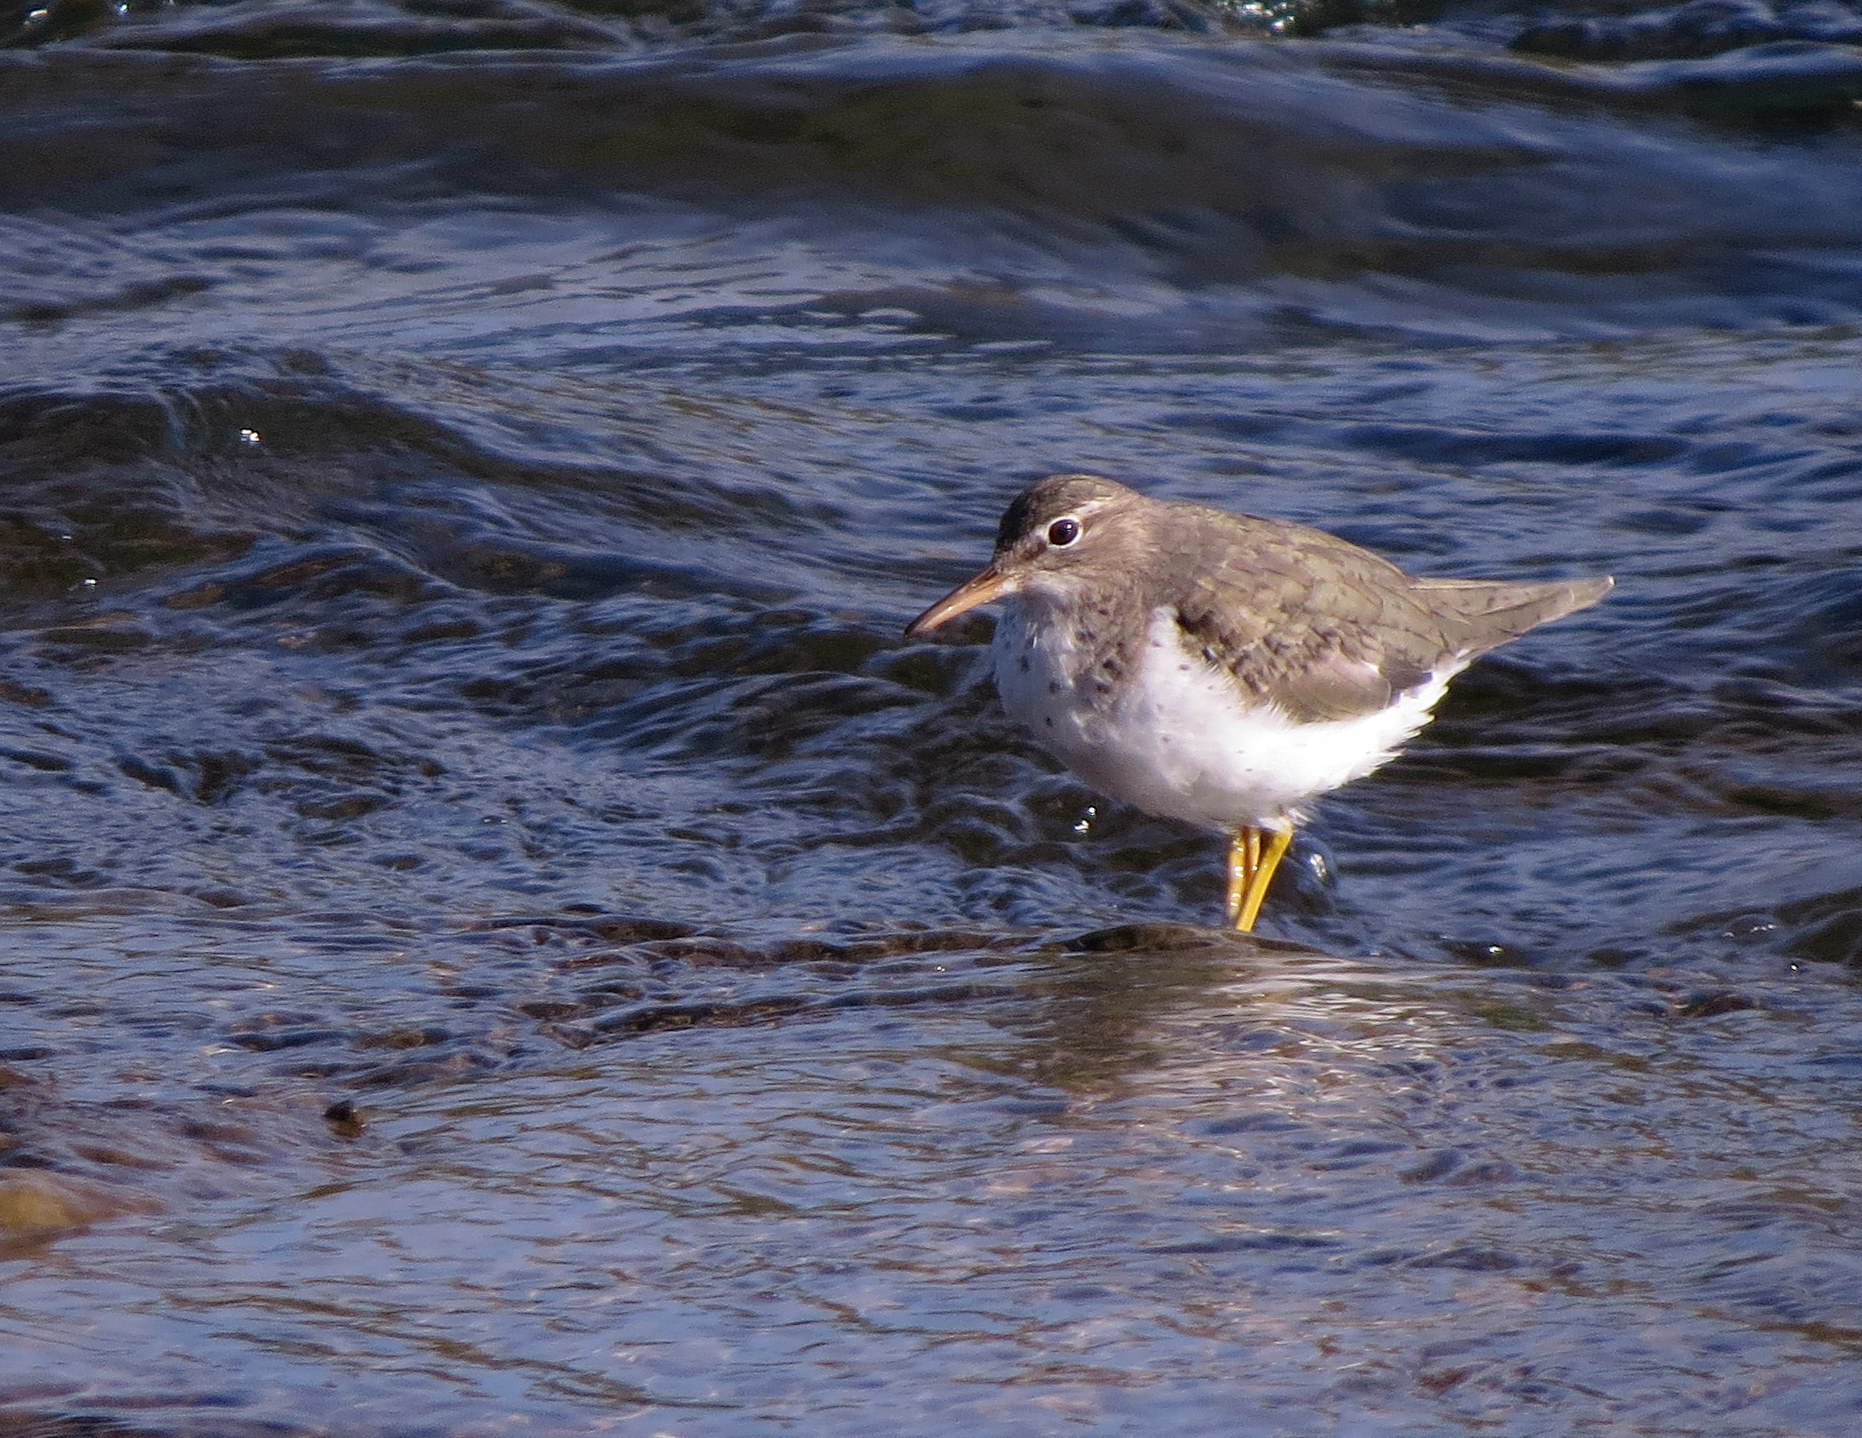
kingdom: Animalia
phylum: Chordata
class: Aves
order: Charadriiformes
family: Scolopacidae
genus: Actitis
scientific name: Actitis macularius
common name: Spotted sandpiper
